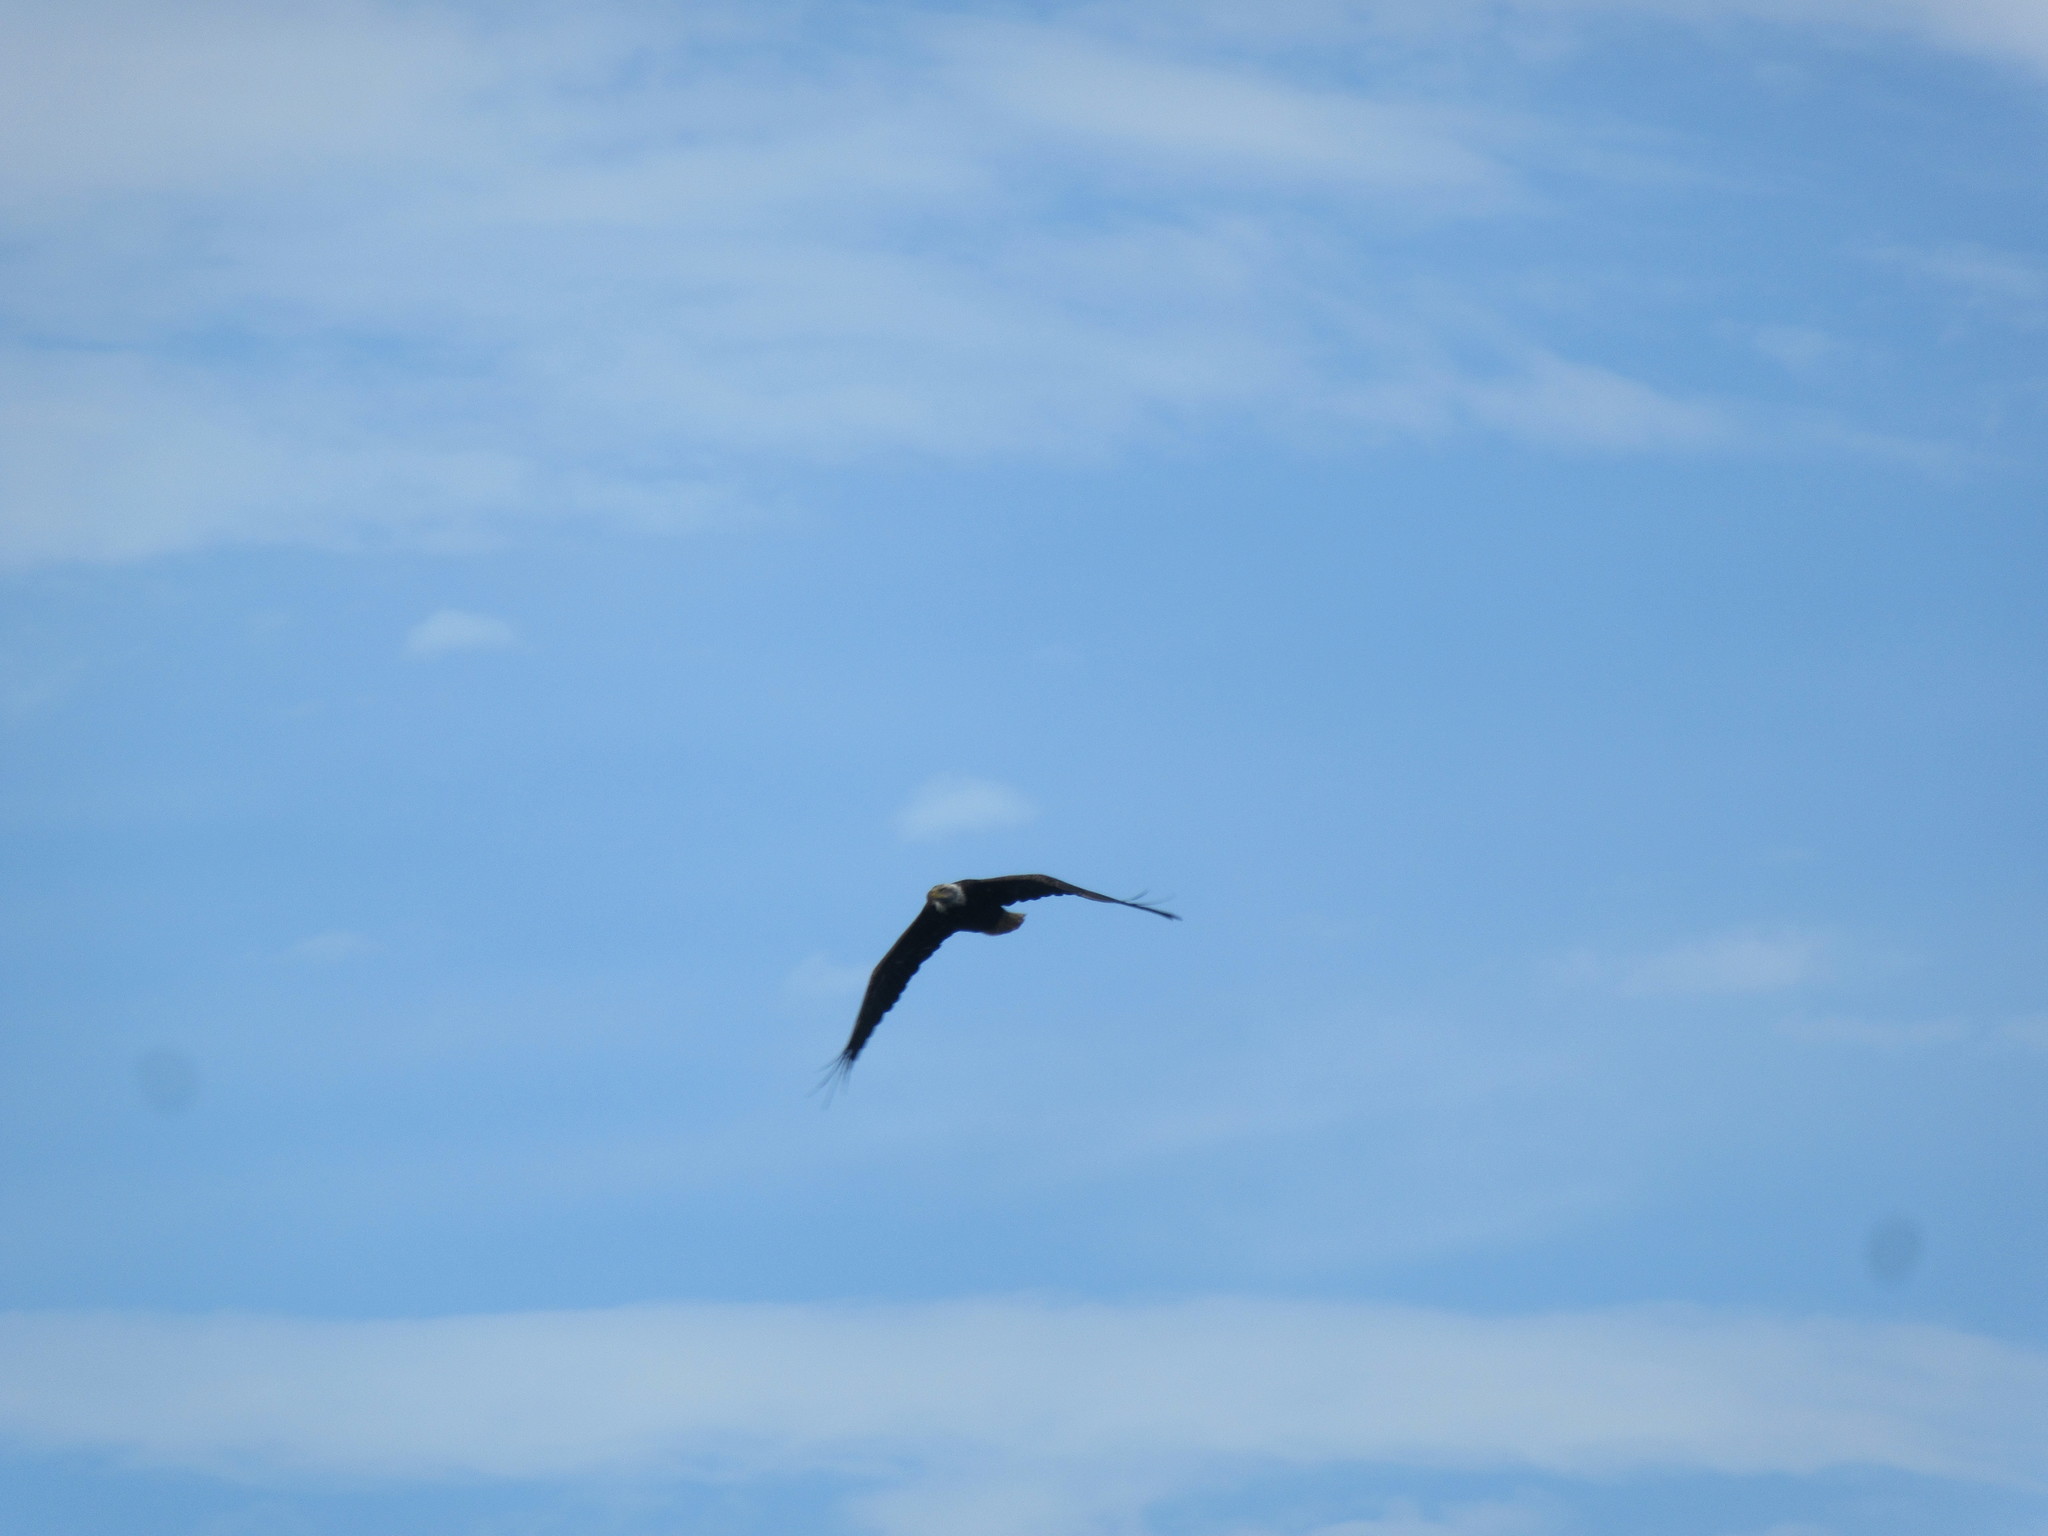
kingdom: Animalia
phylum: Chordata
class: Aves
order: Accipitriformes
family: Accipitridae
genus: Haliaeetus
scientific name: Haliaeetus leucocephalus
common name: Bald eagle
